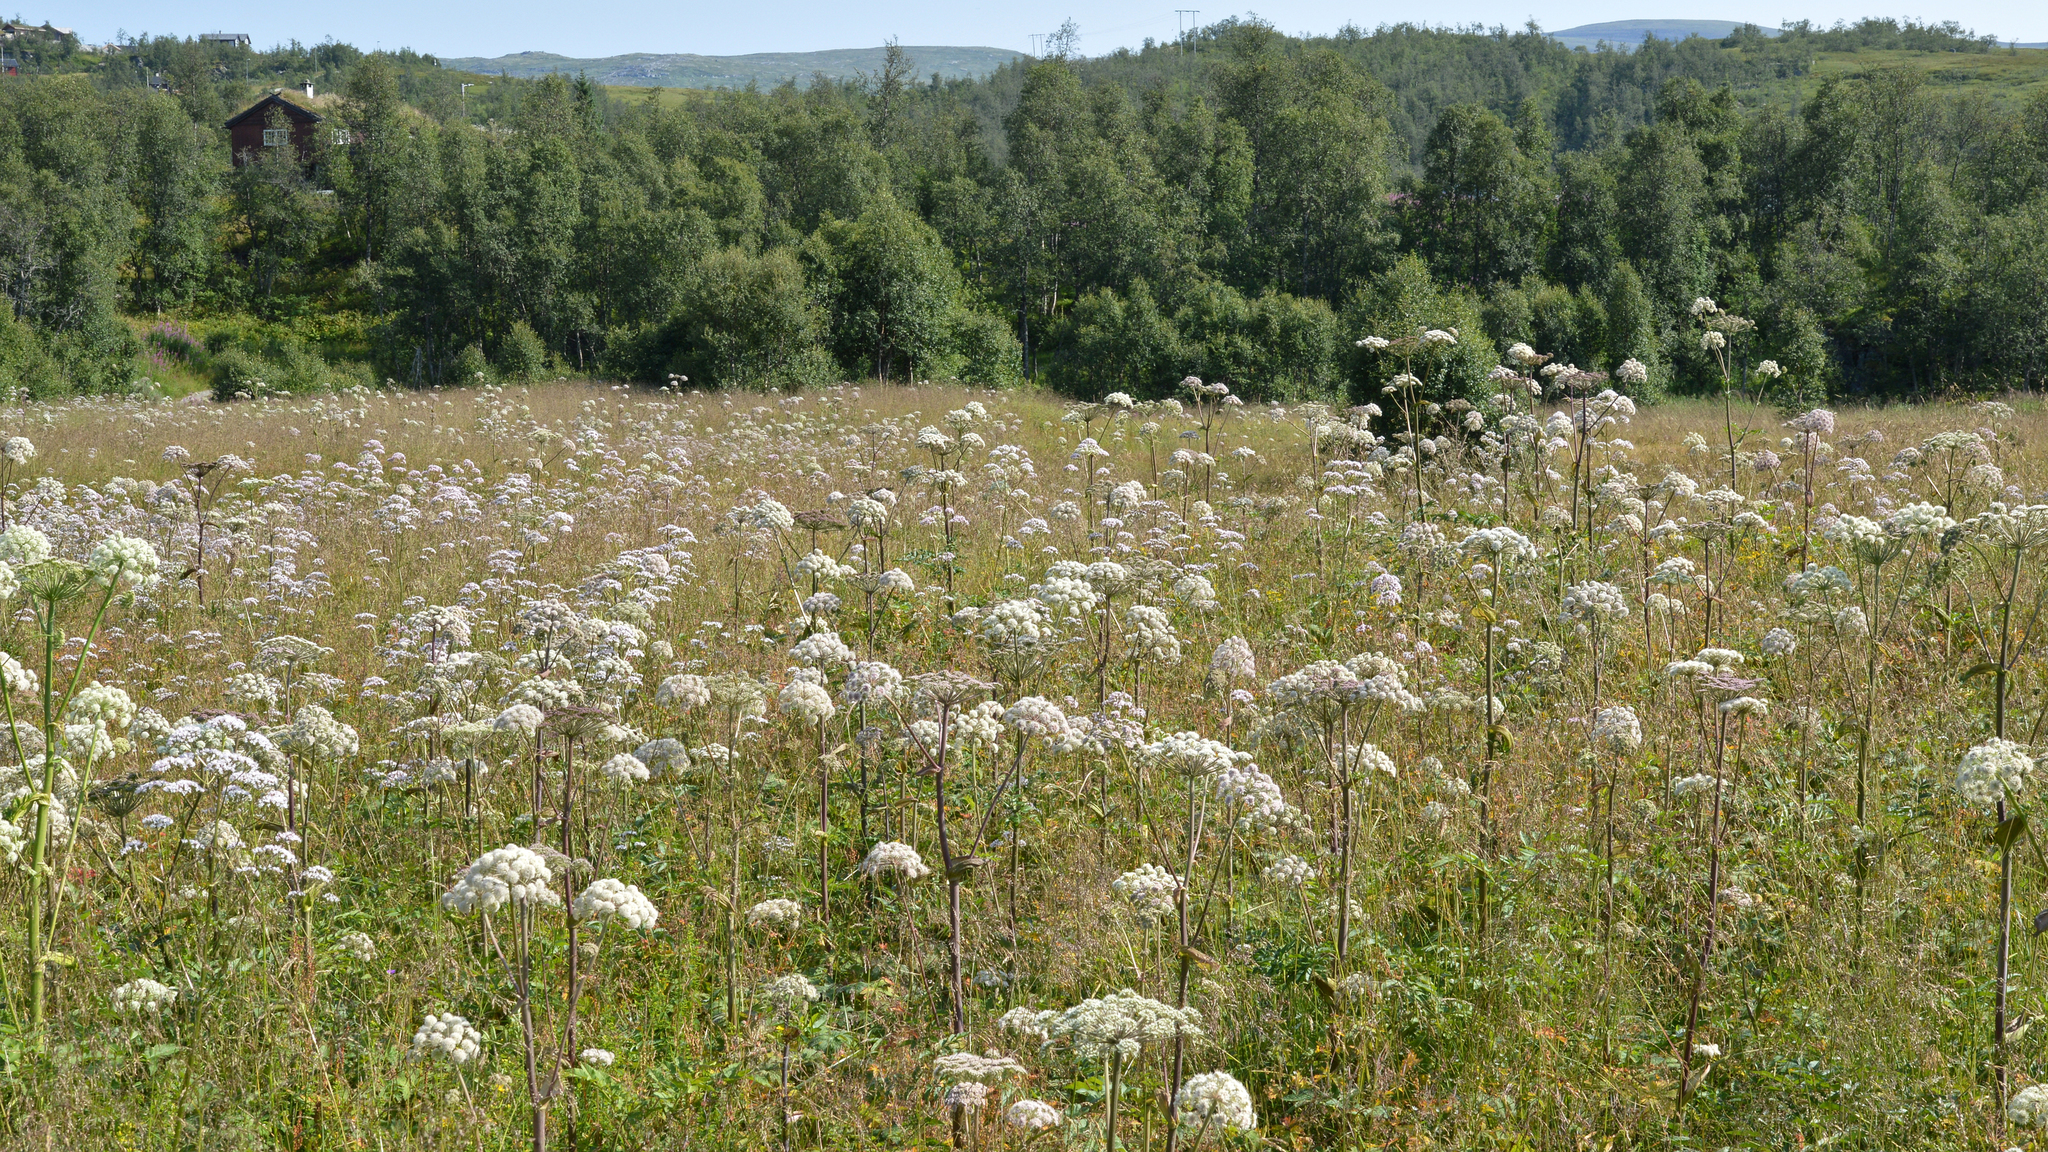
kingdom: Plantae
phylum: Tracheophyta
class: Magnoliopsida
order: Apiales
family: Apiaceae
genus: Angelica
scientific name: Angelica sylvestris
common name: Wild angelica
